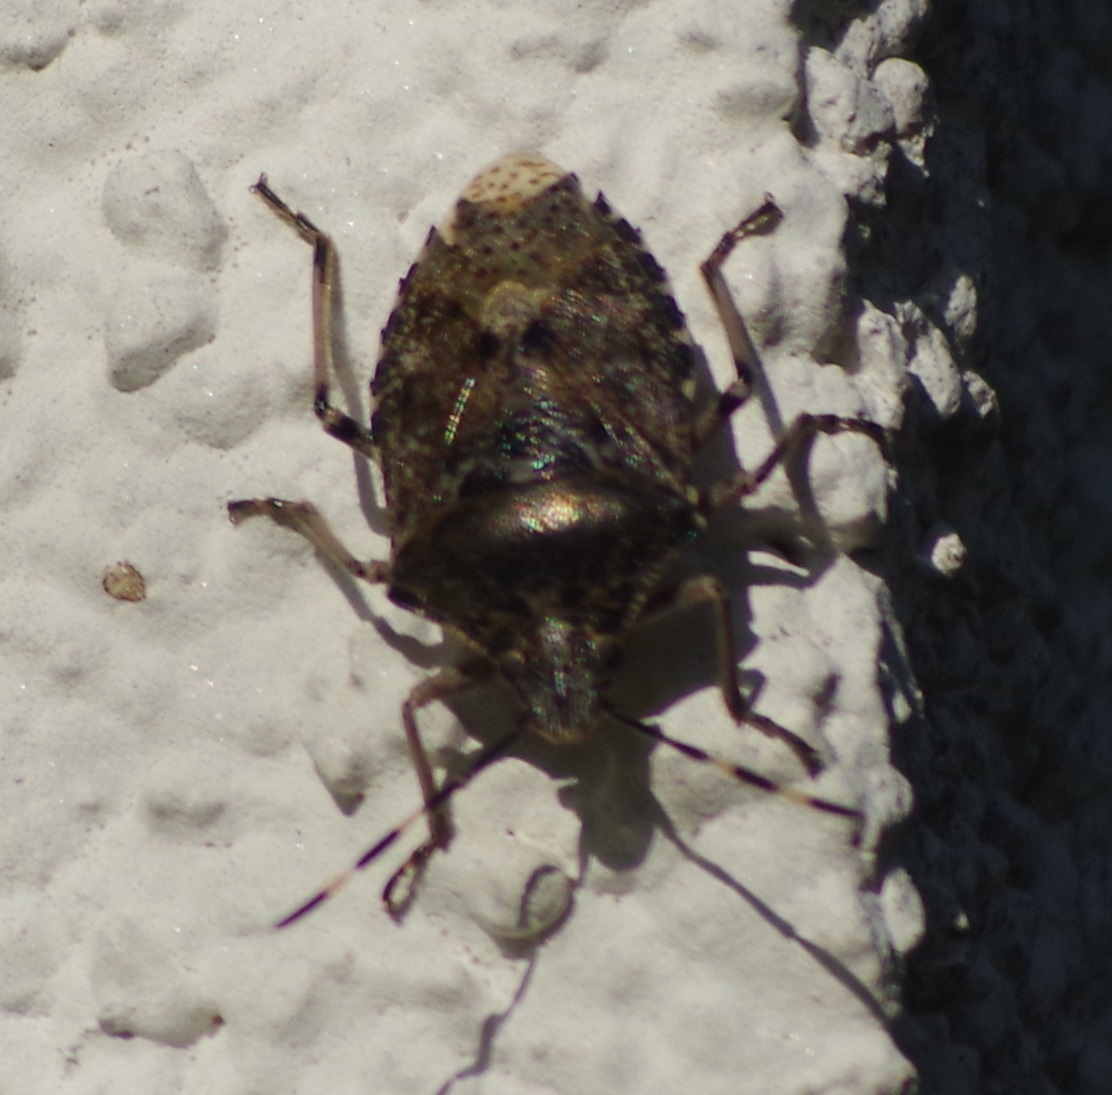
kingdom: Animalia
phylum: Arthropoda
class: Insecta
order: Hemiptera
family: Pentatomidae
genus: Rhaphigaster
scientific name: Rhaphigaster nebulosa
